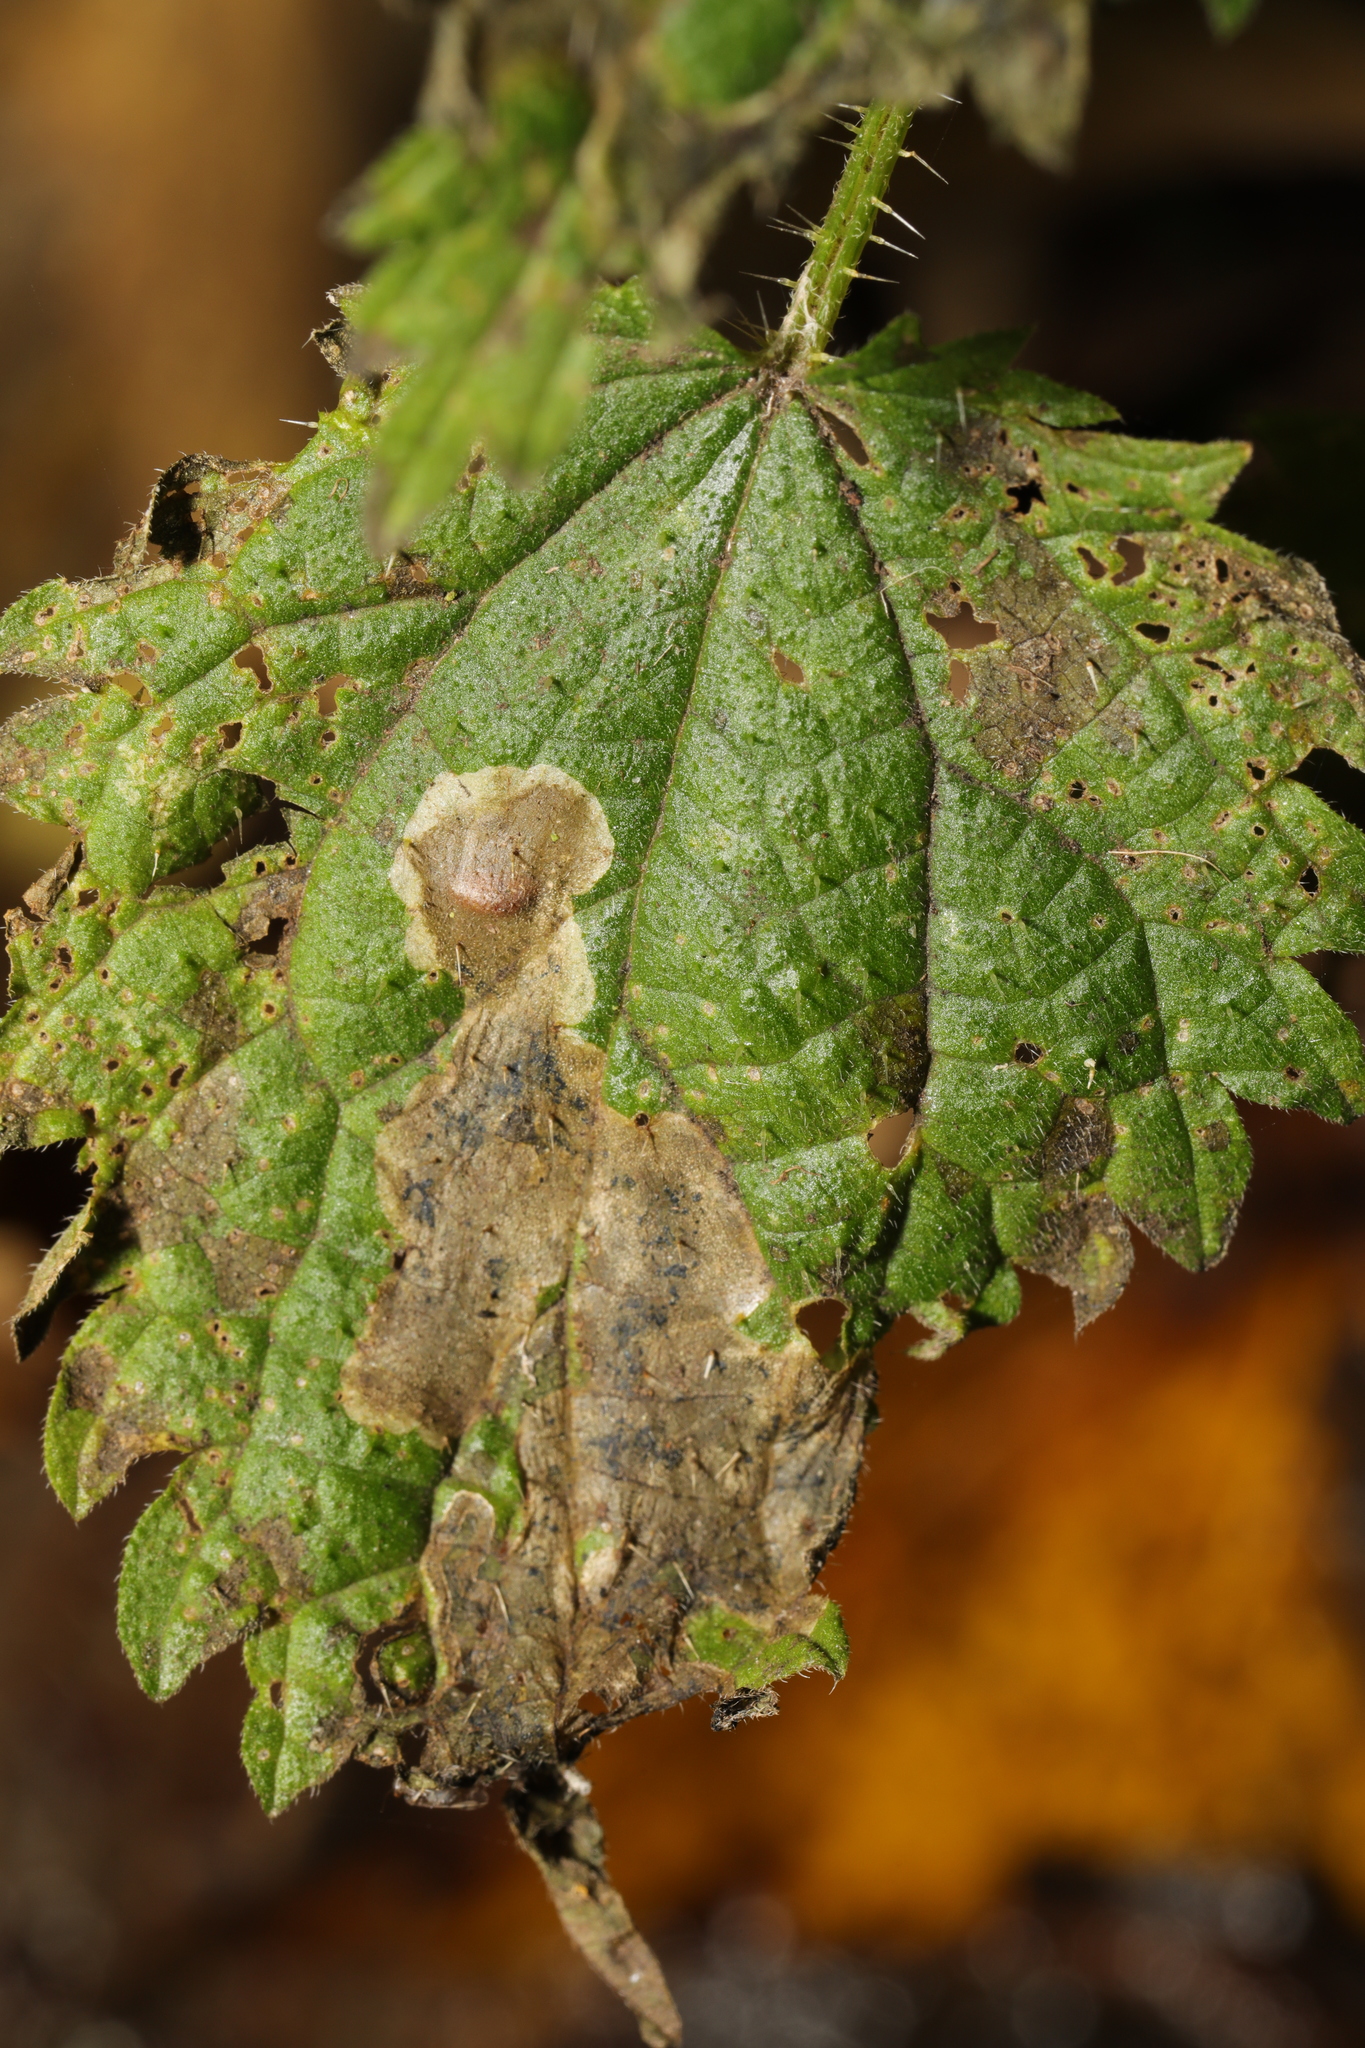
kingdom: Animalia
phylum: Arthropoda
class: Insecta
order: Diptera
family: Agromyzidae
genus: Agromyza
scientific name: Agromyza anthracina
